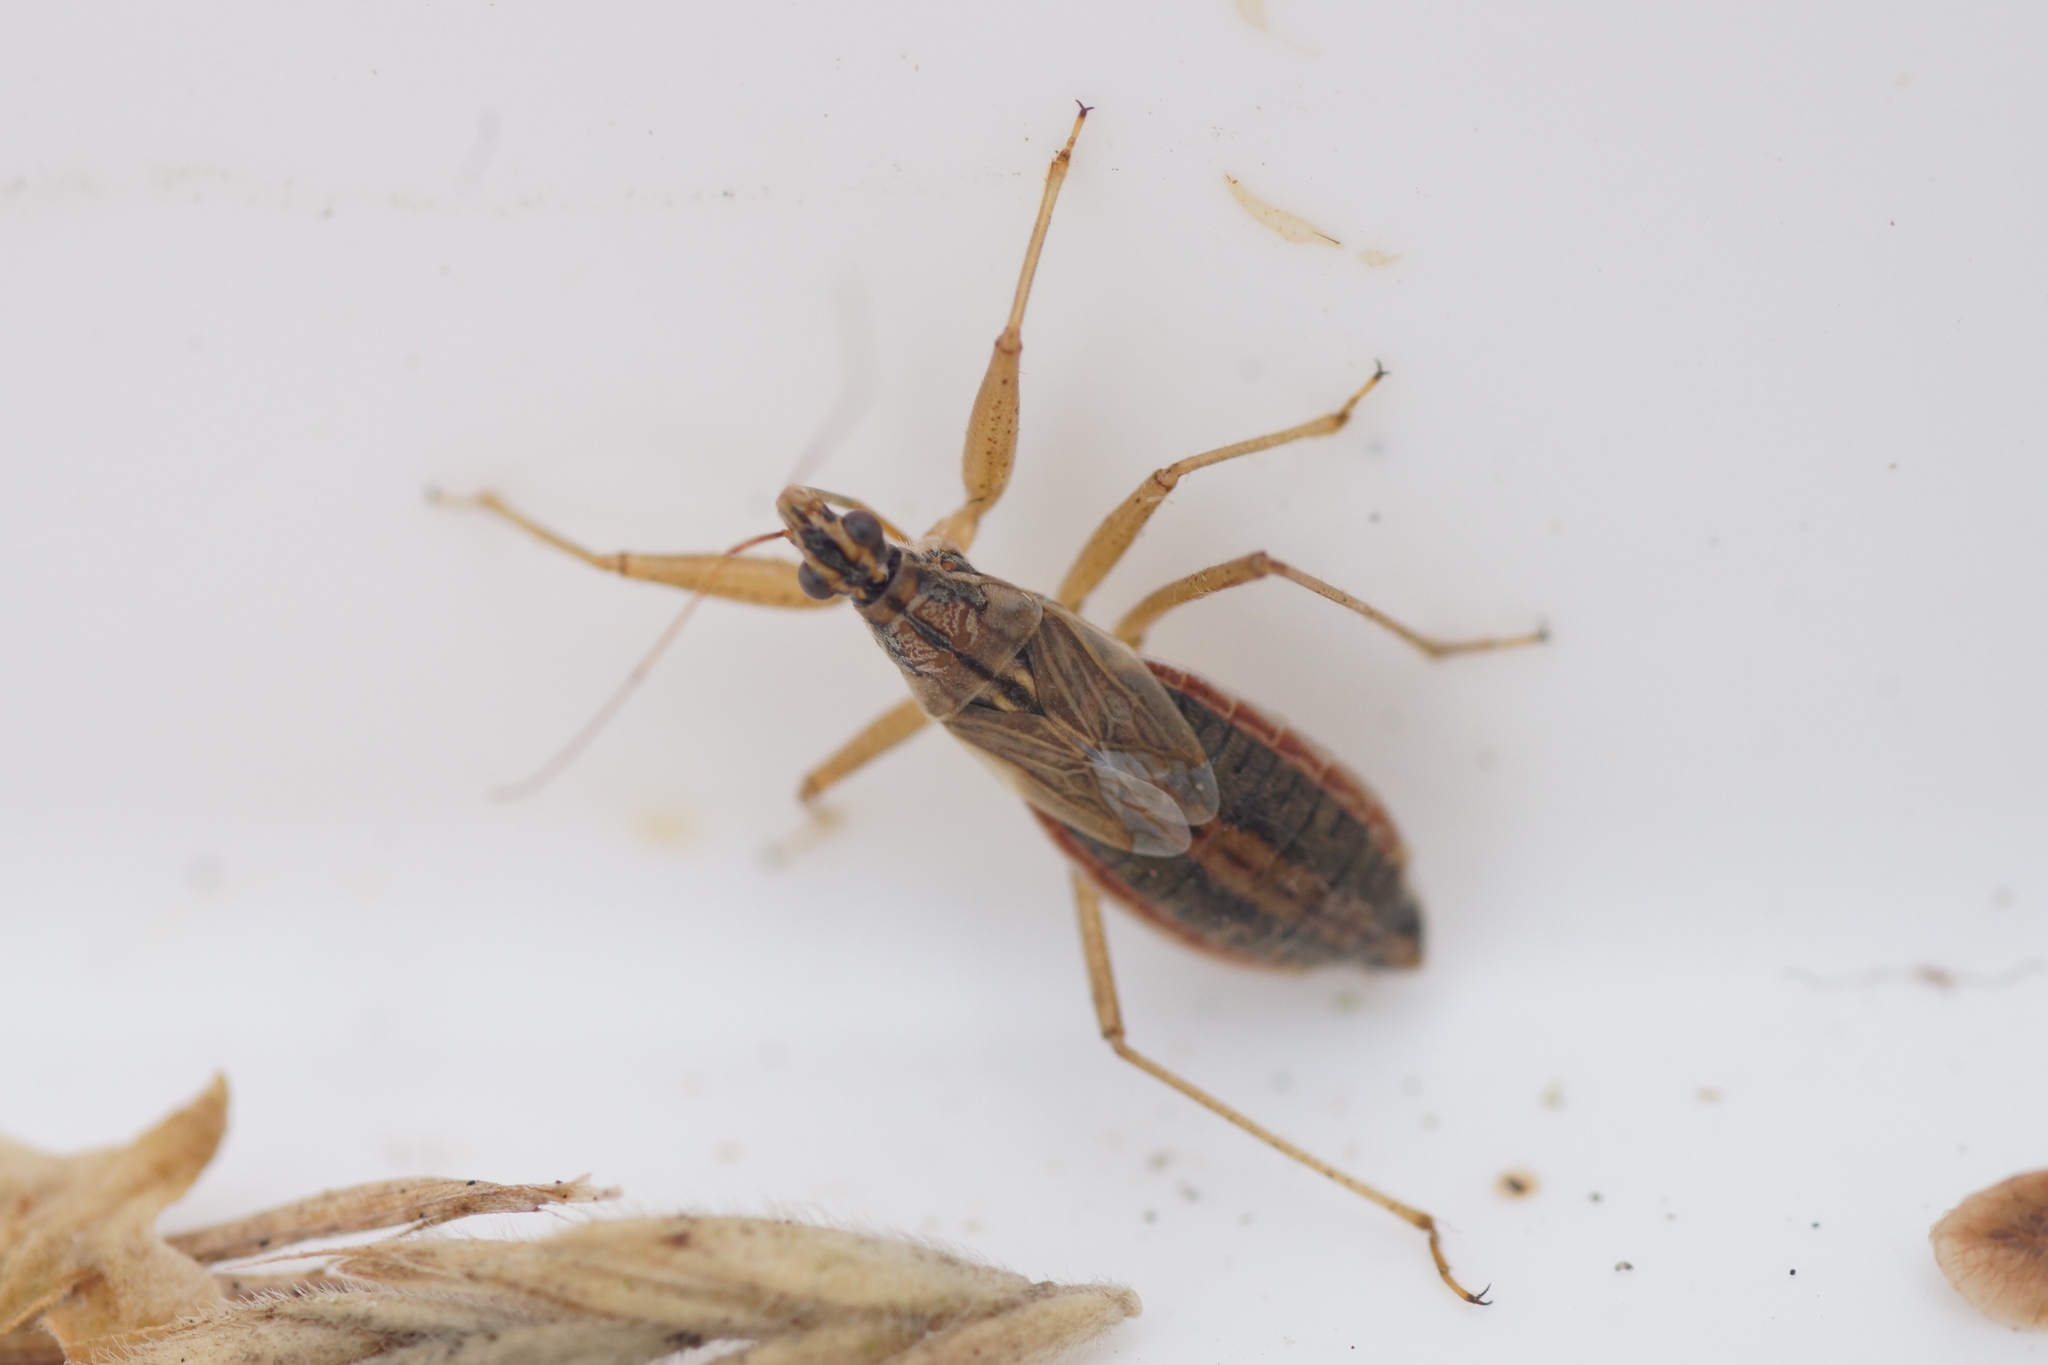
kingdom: Animalia
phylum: Arthropoda
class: Insecta
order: Hemiptera
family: Nabidae
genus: Nabis
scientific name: Nabis flavomarginatus
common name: Broad damselbug
